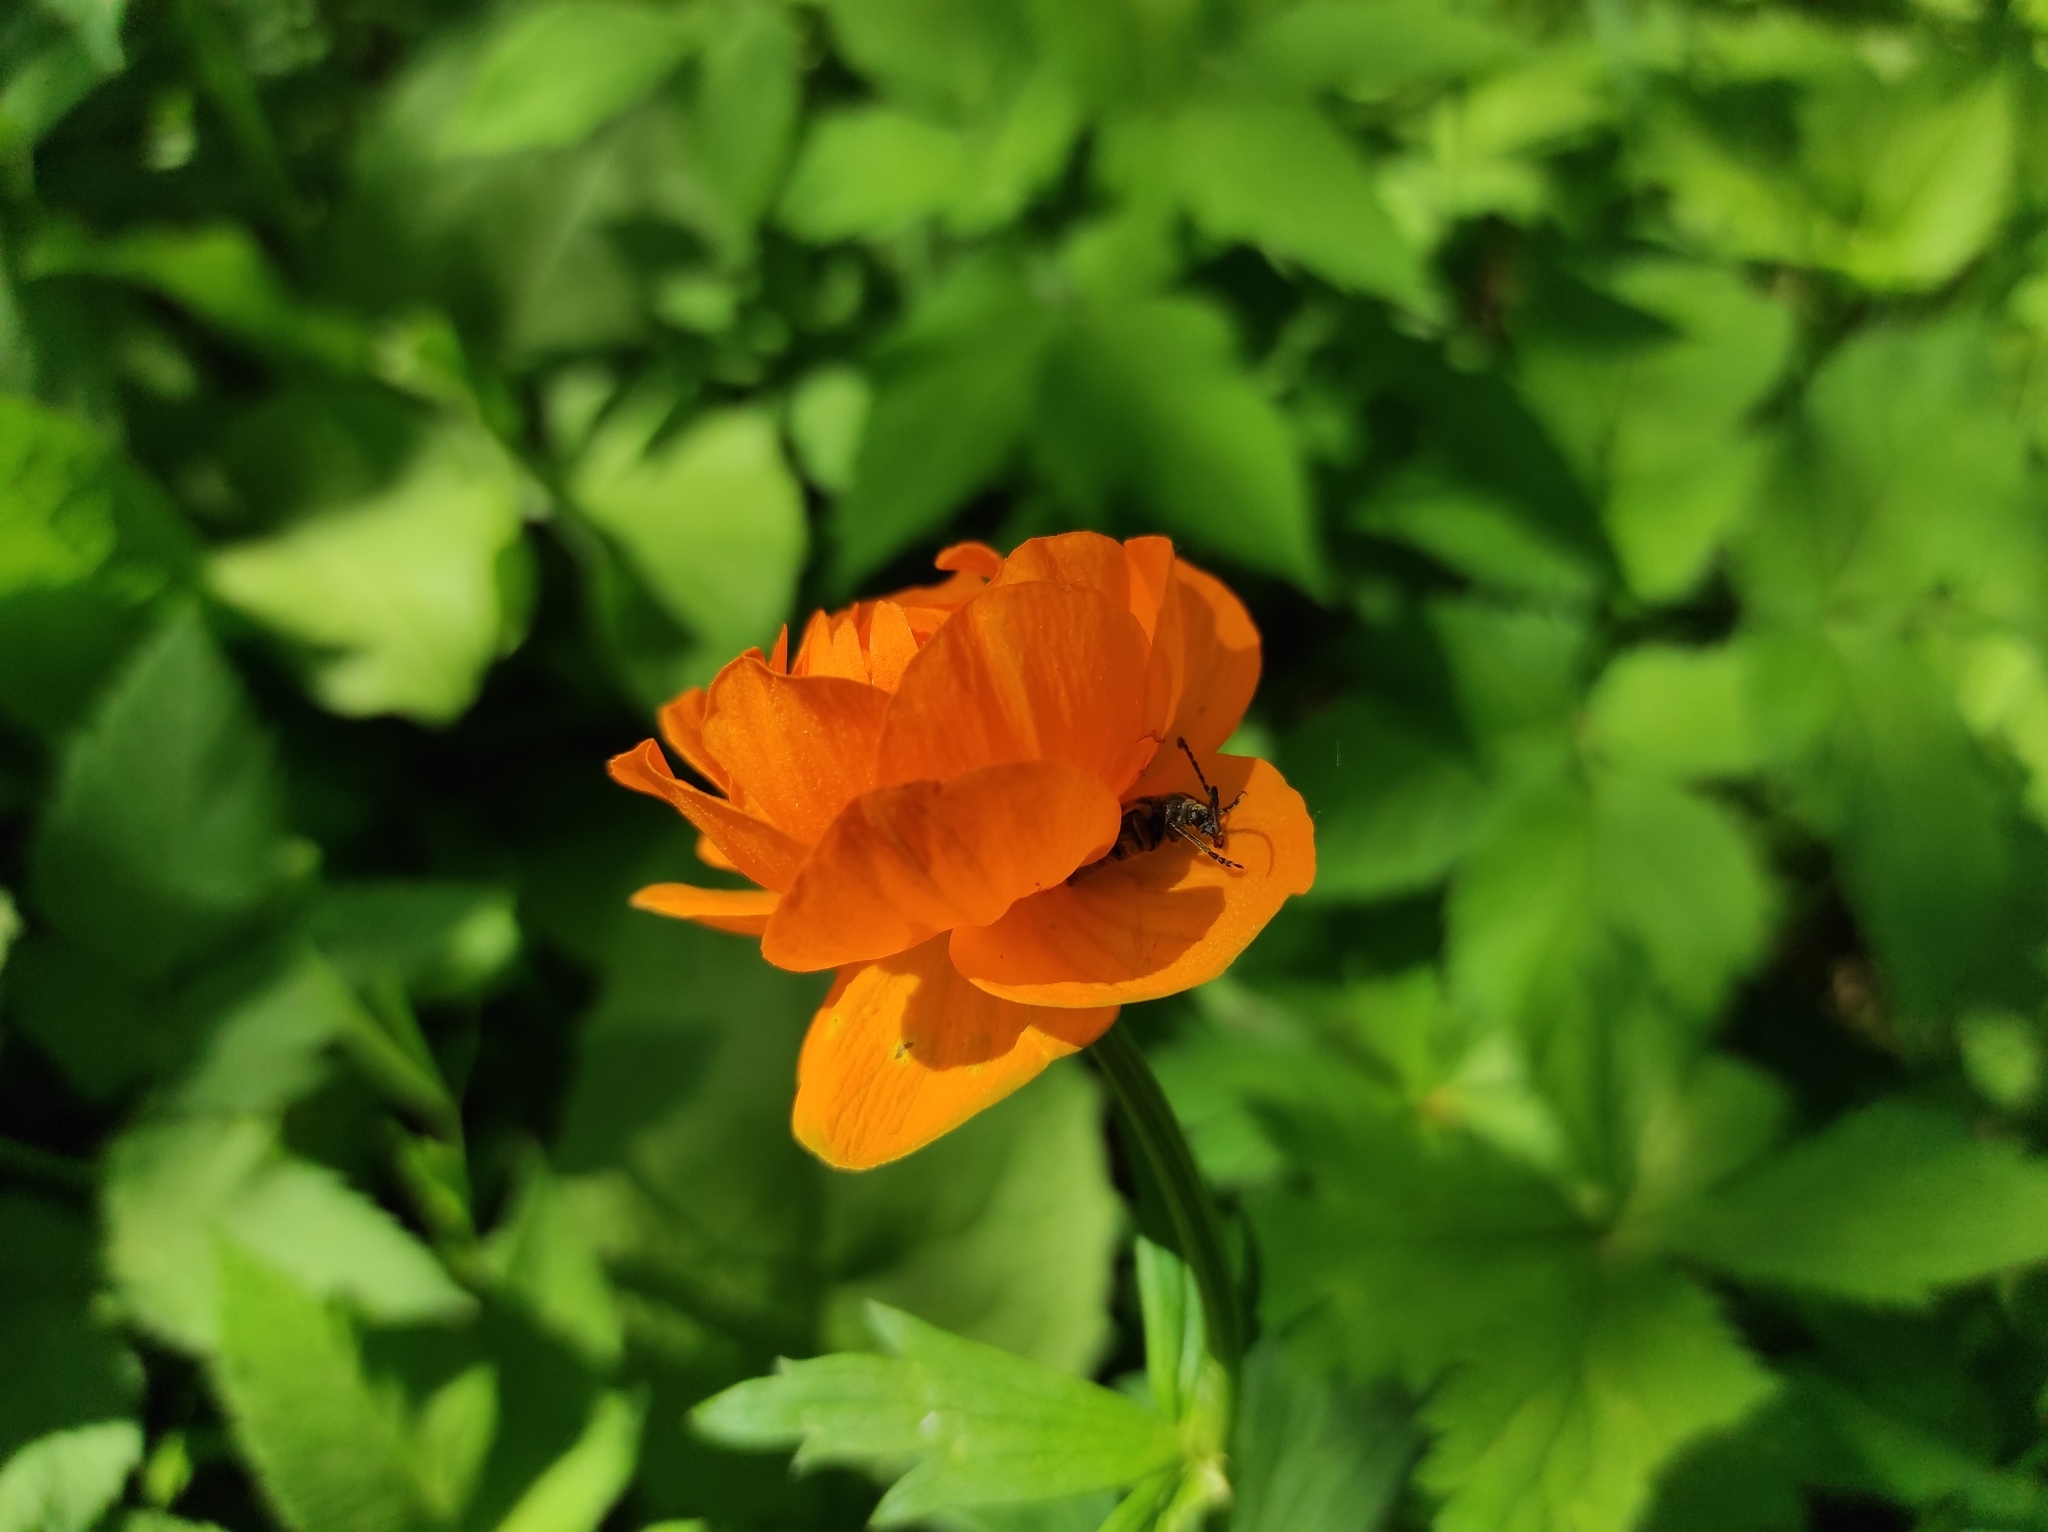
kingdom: Plantae
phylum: Tracheophyta
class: Magnoliopsida
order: Ranunculales
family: Ranunculaceae
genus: Trollius
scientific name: Trollius asiaticus
